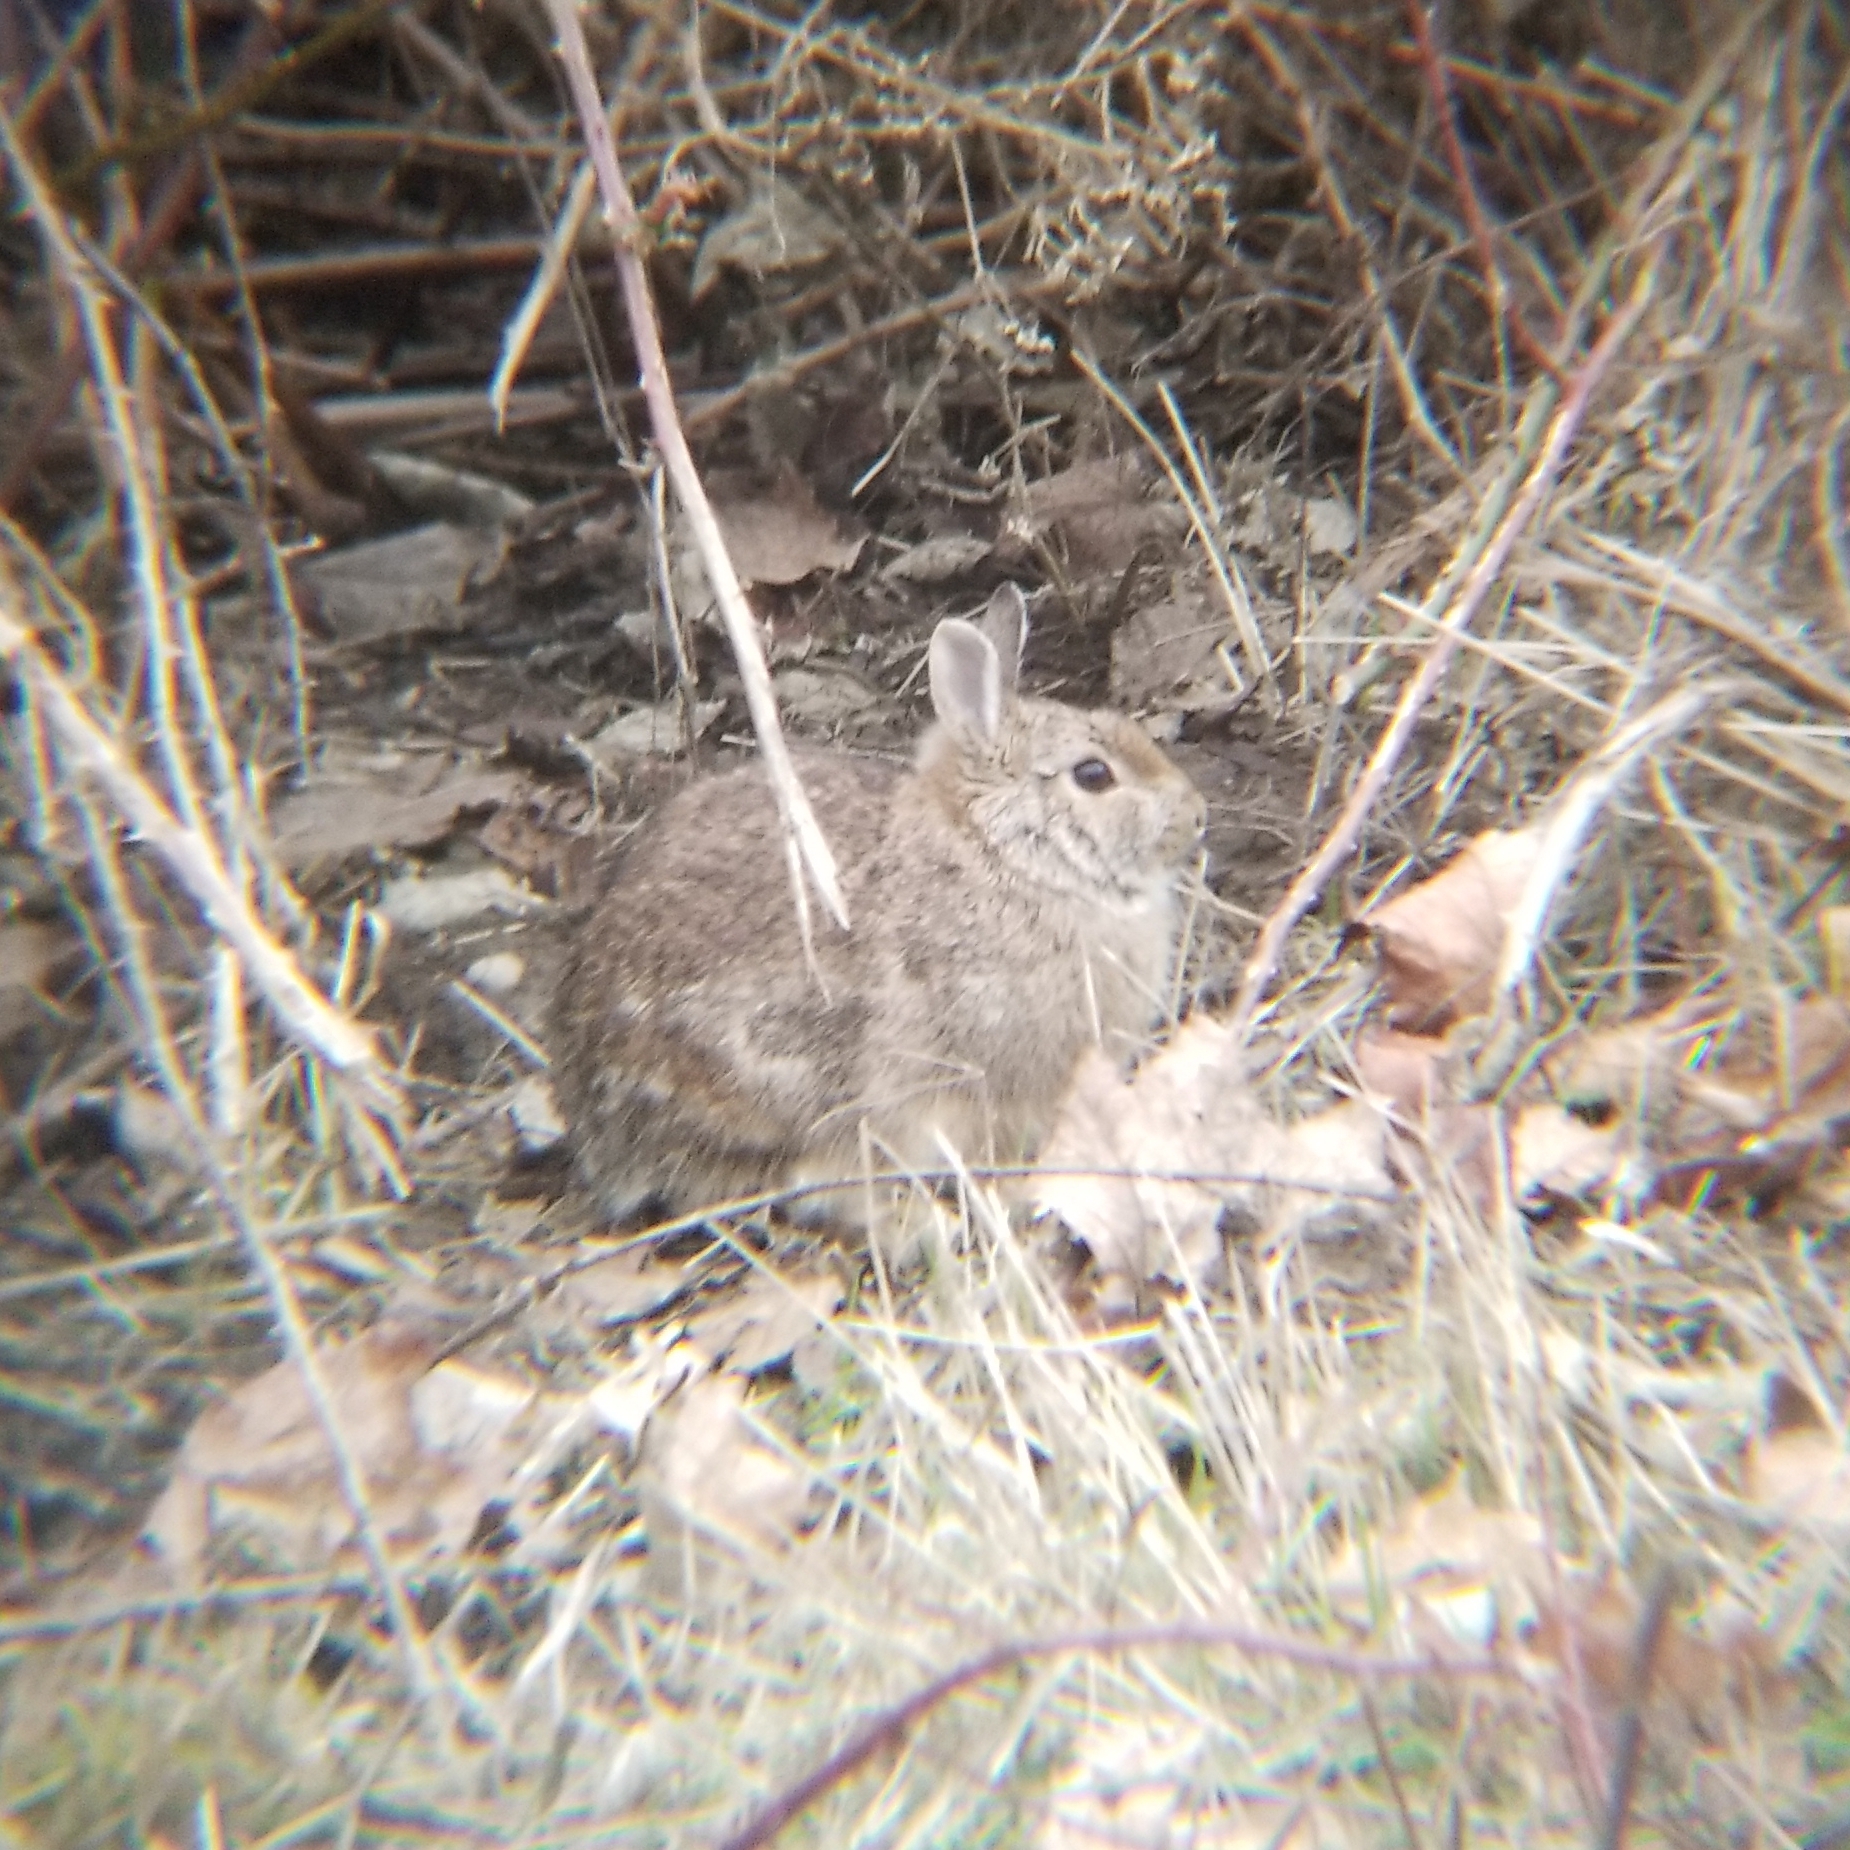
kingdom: Animalia
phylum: Chordata
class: Mammalia
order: Lagomorpha
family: Leporidae
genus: Sylvilagus
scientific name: Sylvilagus floridanus
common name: Eastern cottontail
